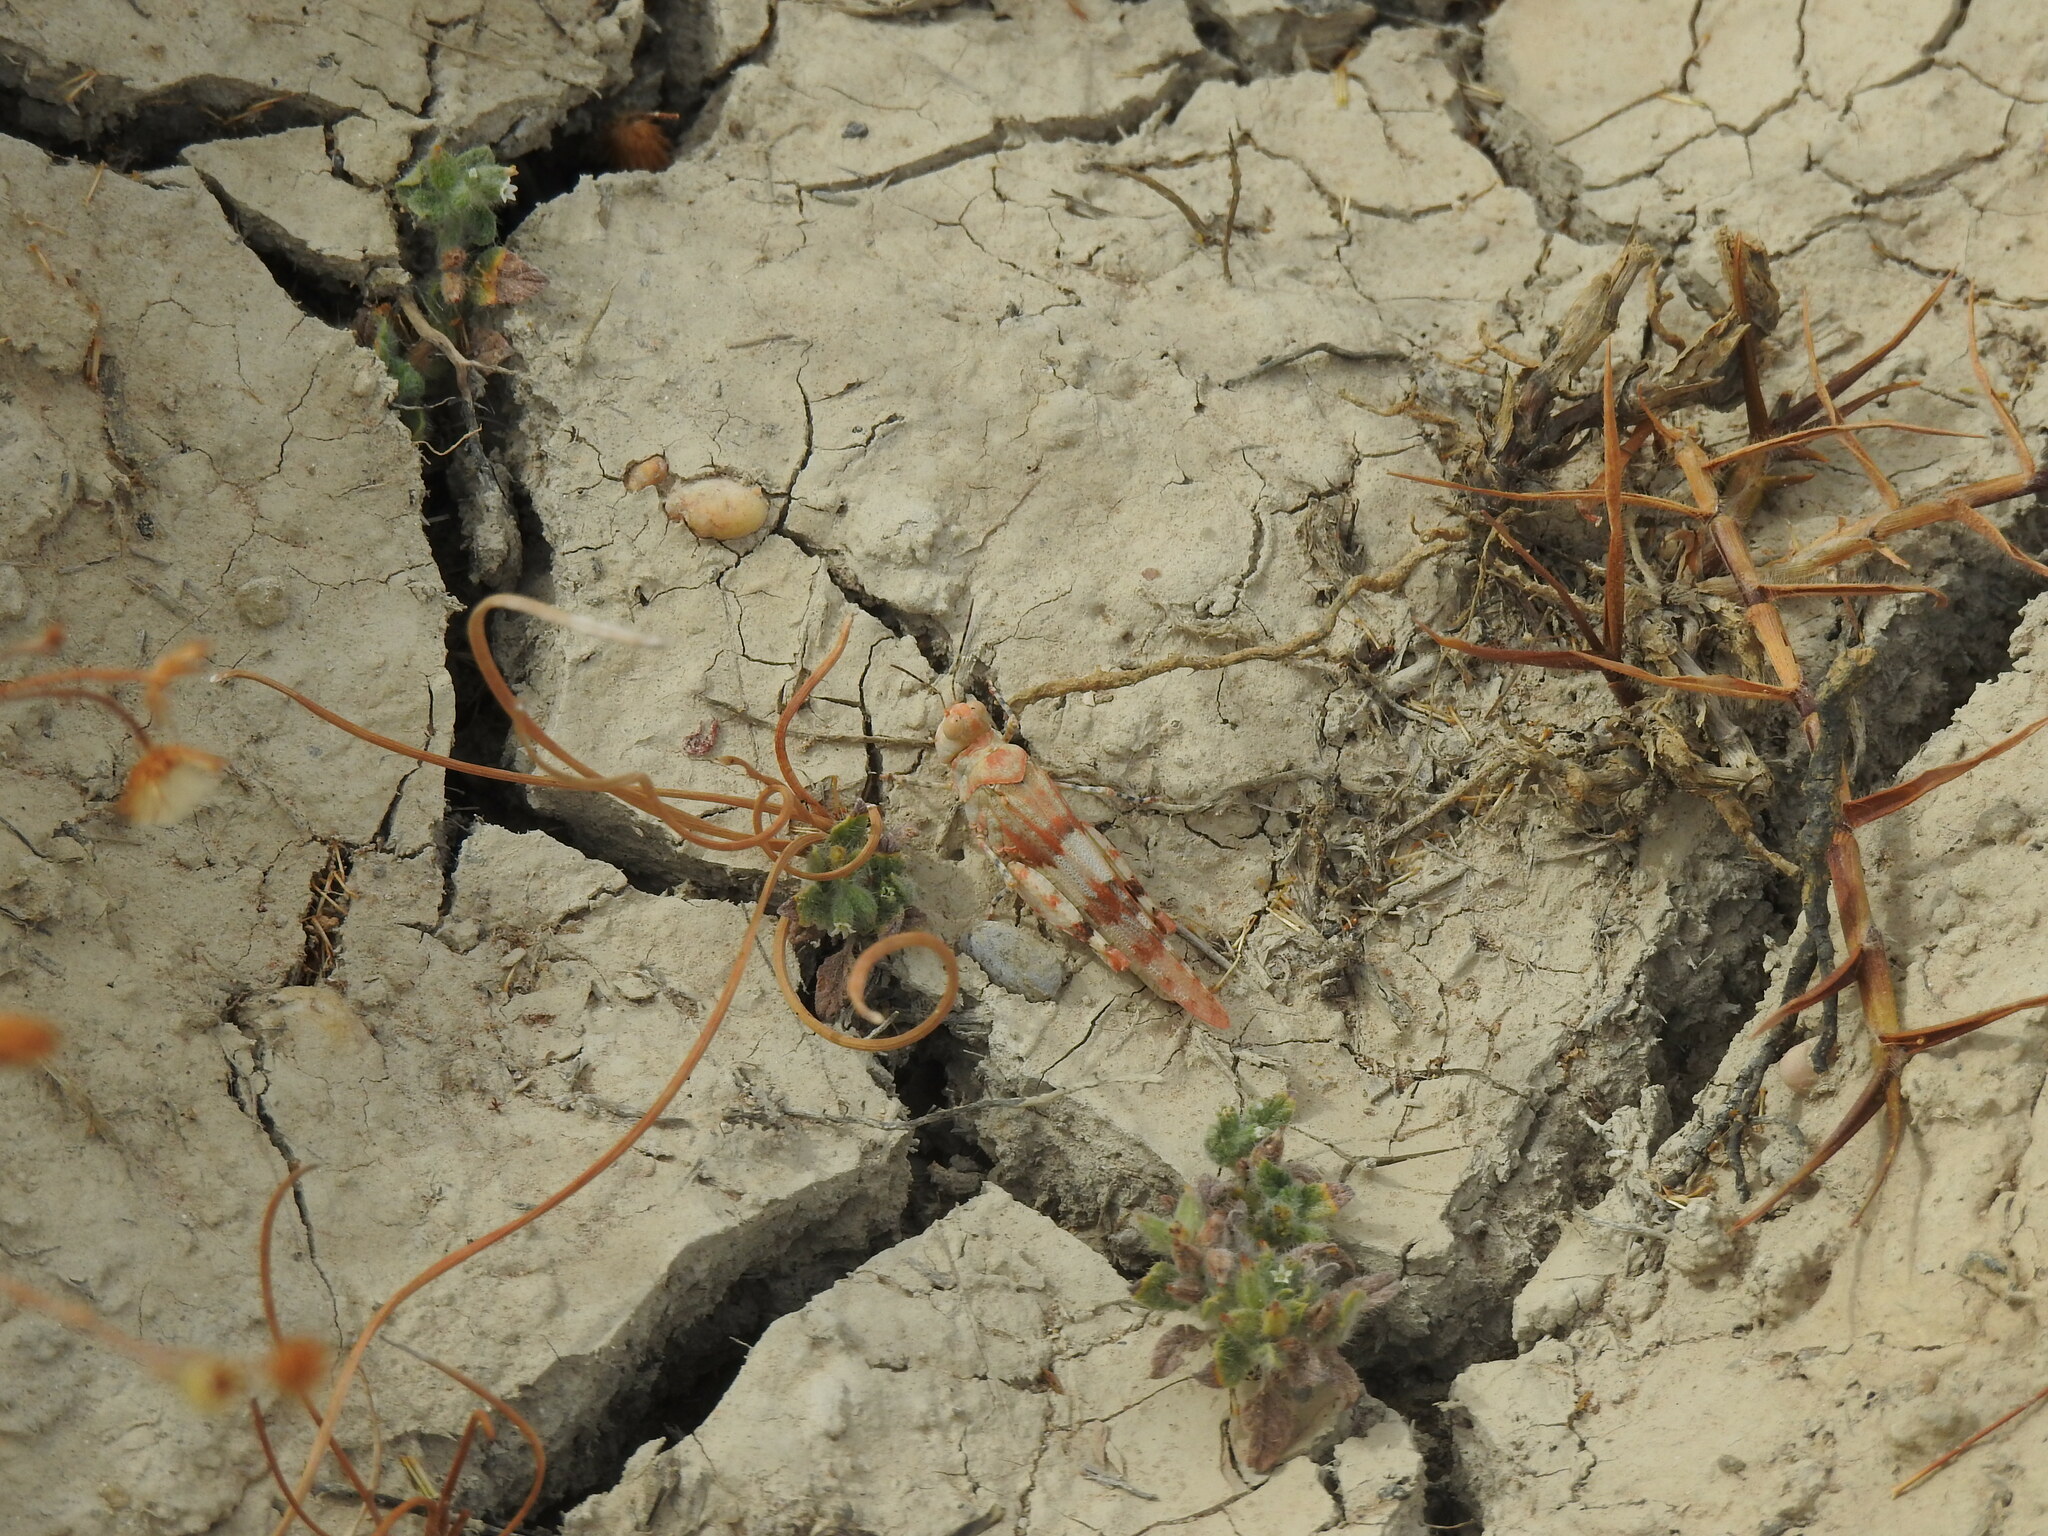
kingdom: Animalia
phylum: Arthropoda
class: Insecta
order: Orthoptera
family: Acrididae
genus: Sphingonotus
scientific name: Sphingonotus azurescens
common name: Azure sand grasshopper
